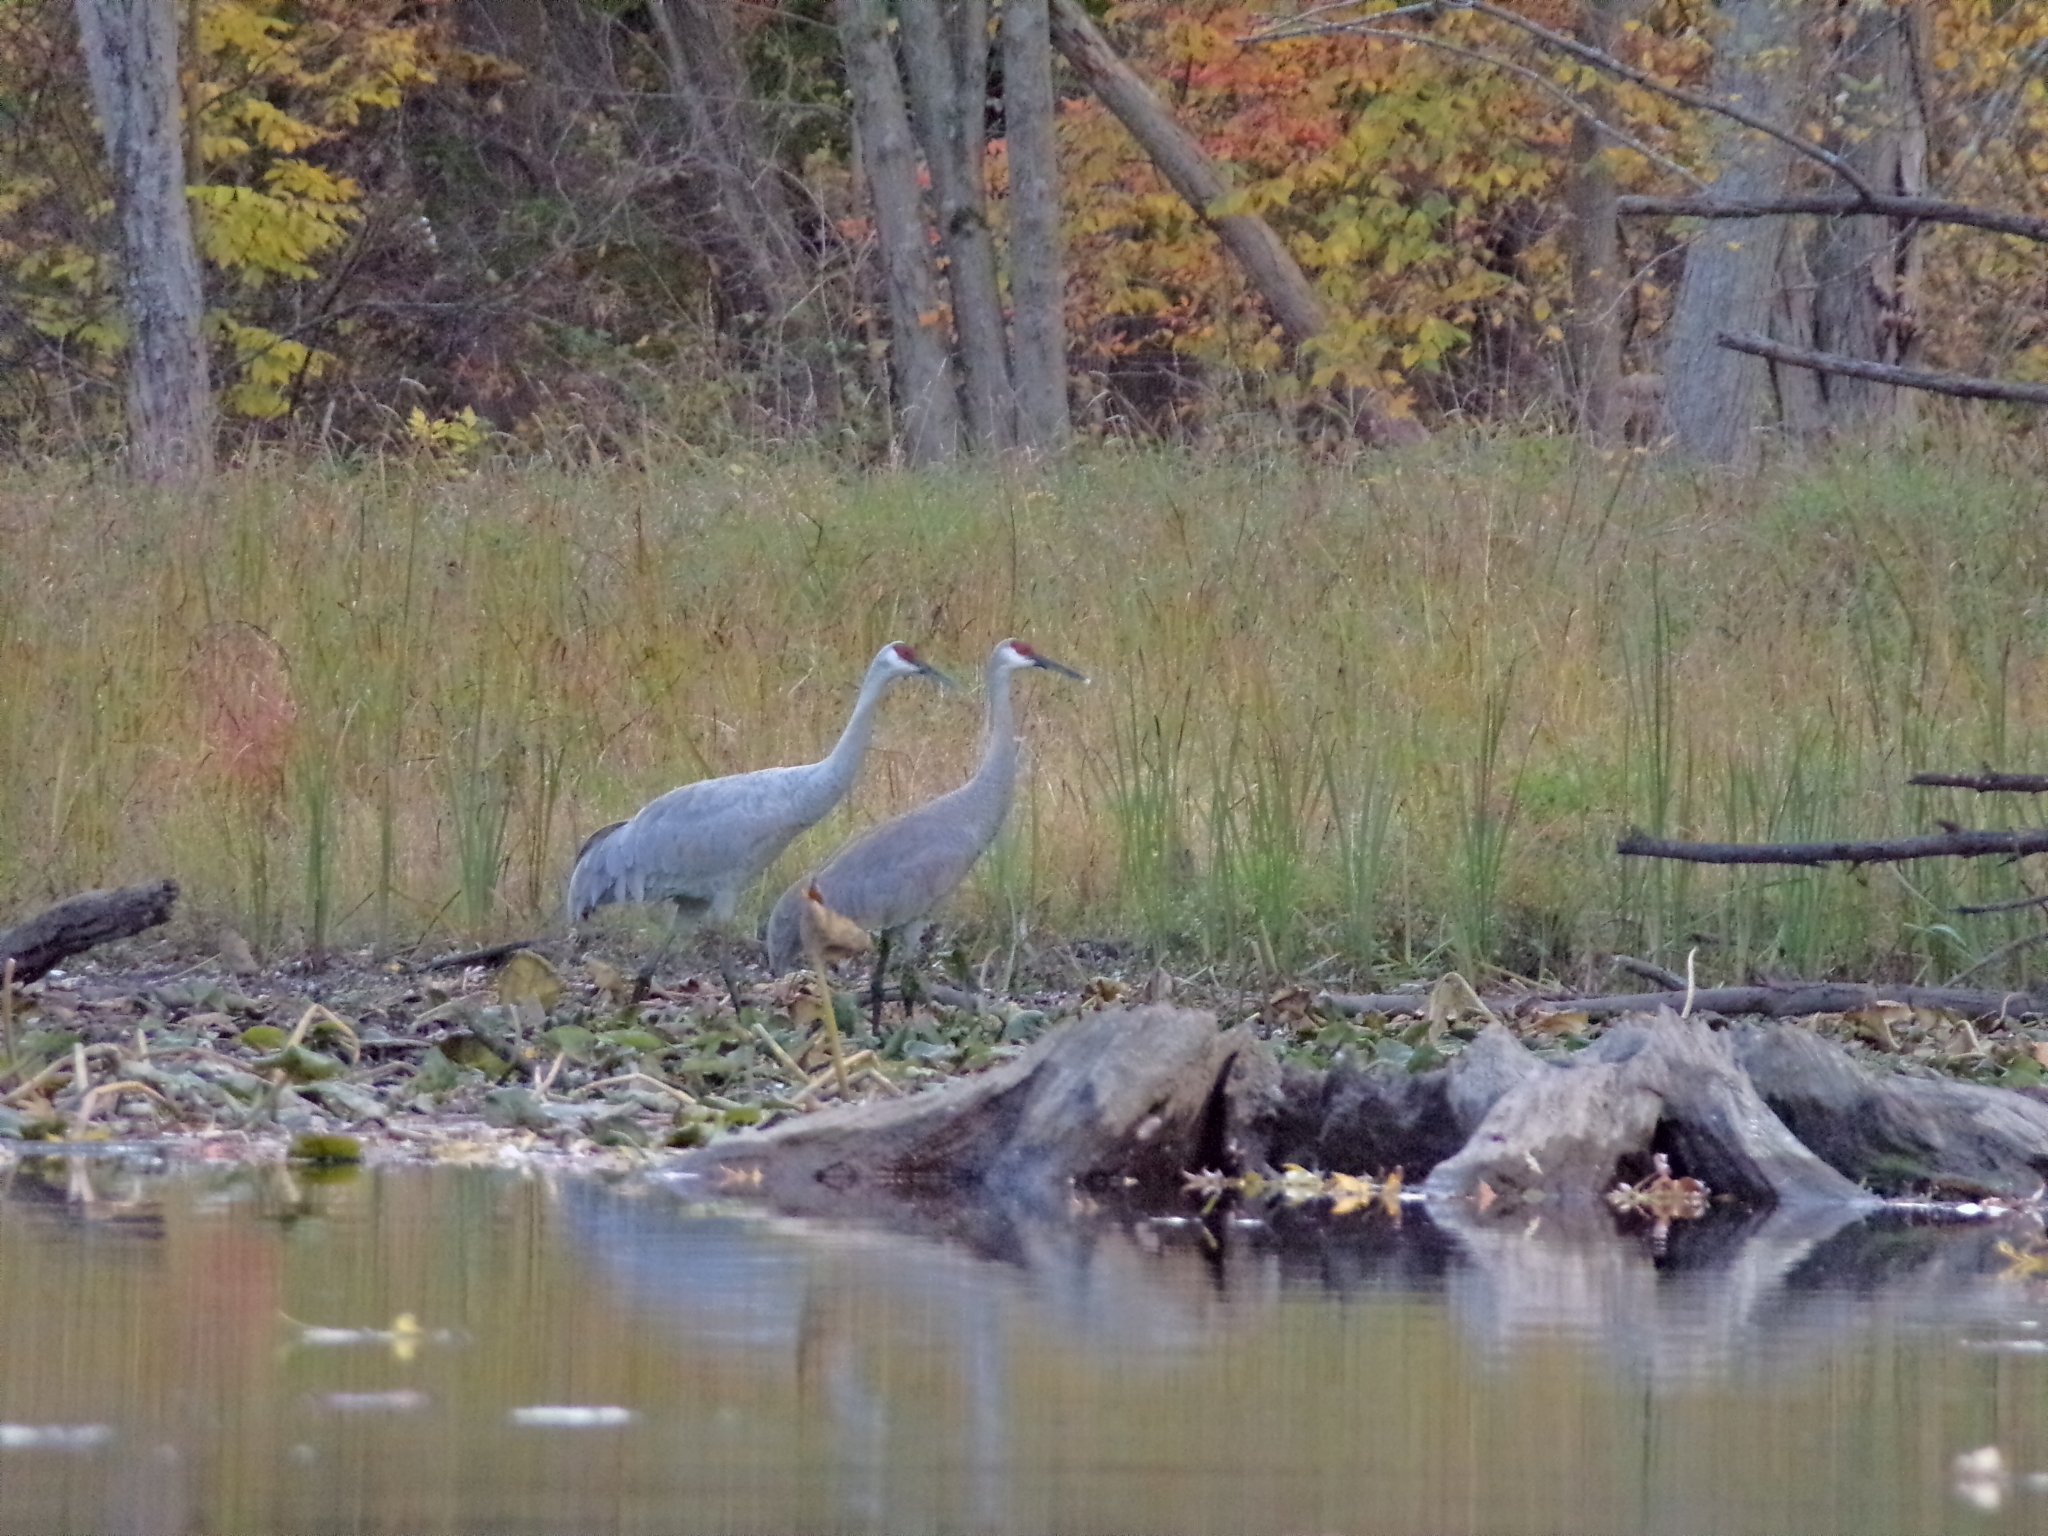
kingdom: Animalia
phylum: Chordata
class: Aves
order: Gruiformes
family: Gruidae
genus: Grus
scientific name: Grus canadensis
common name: Sandhill crane
